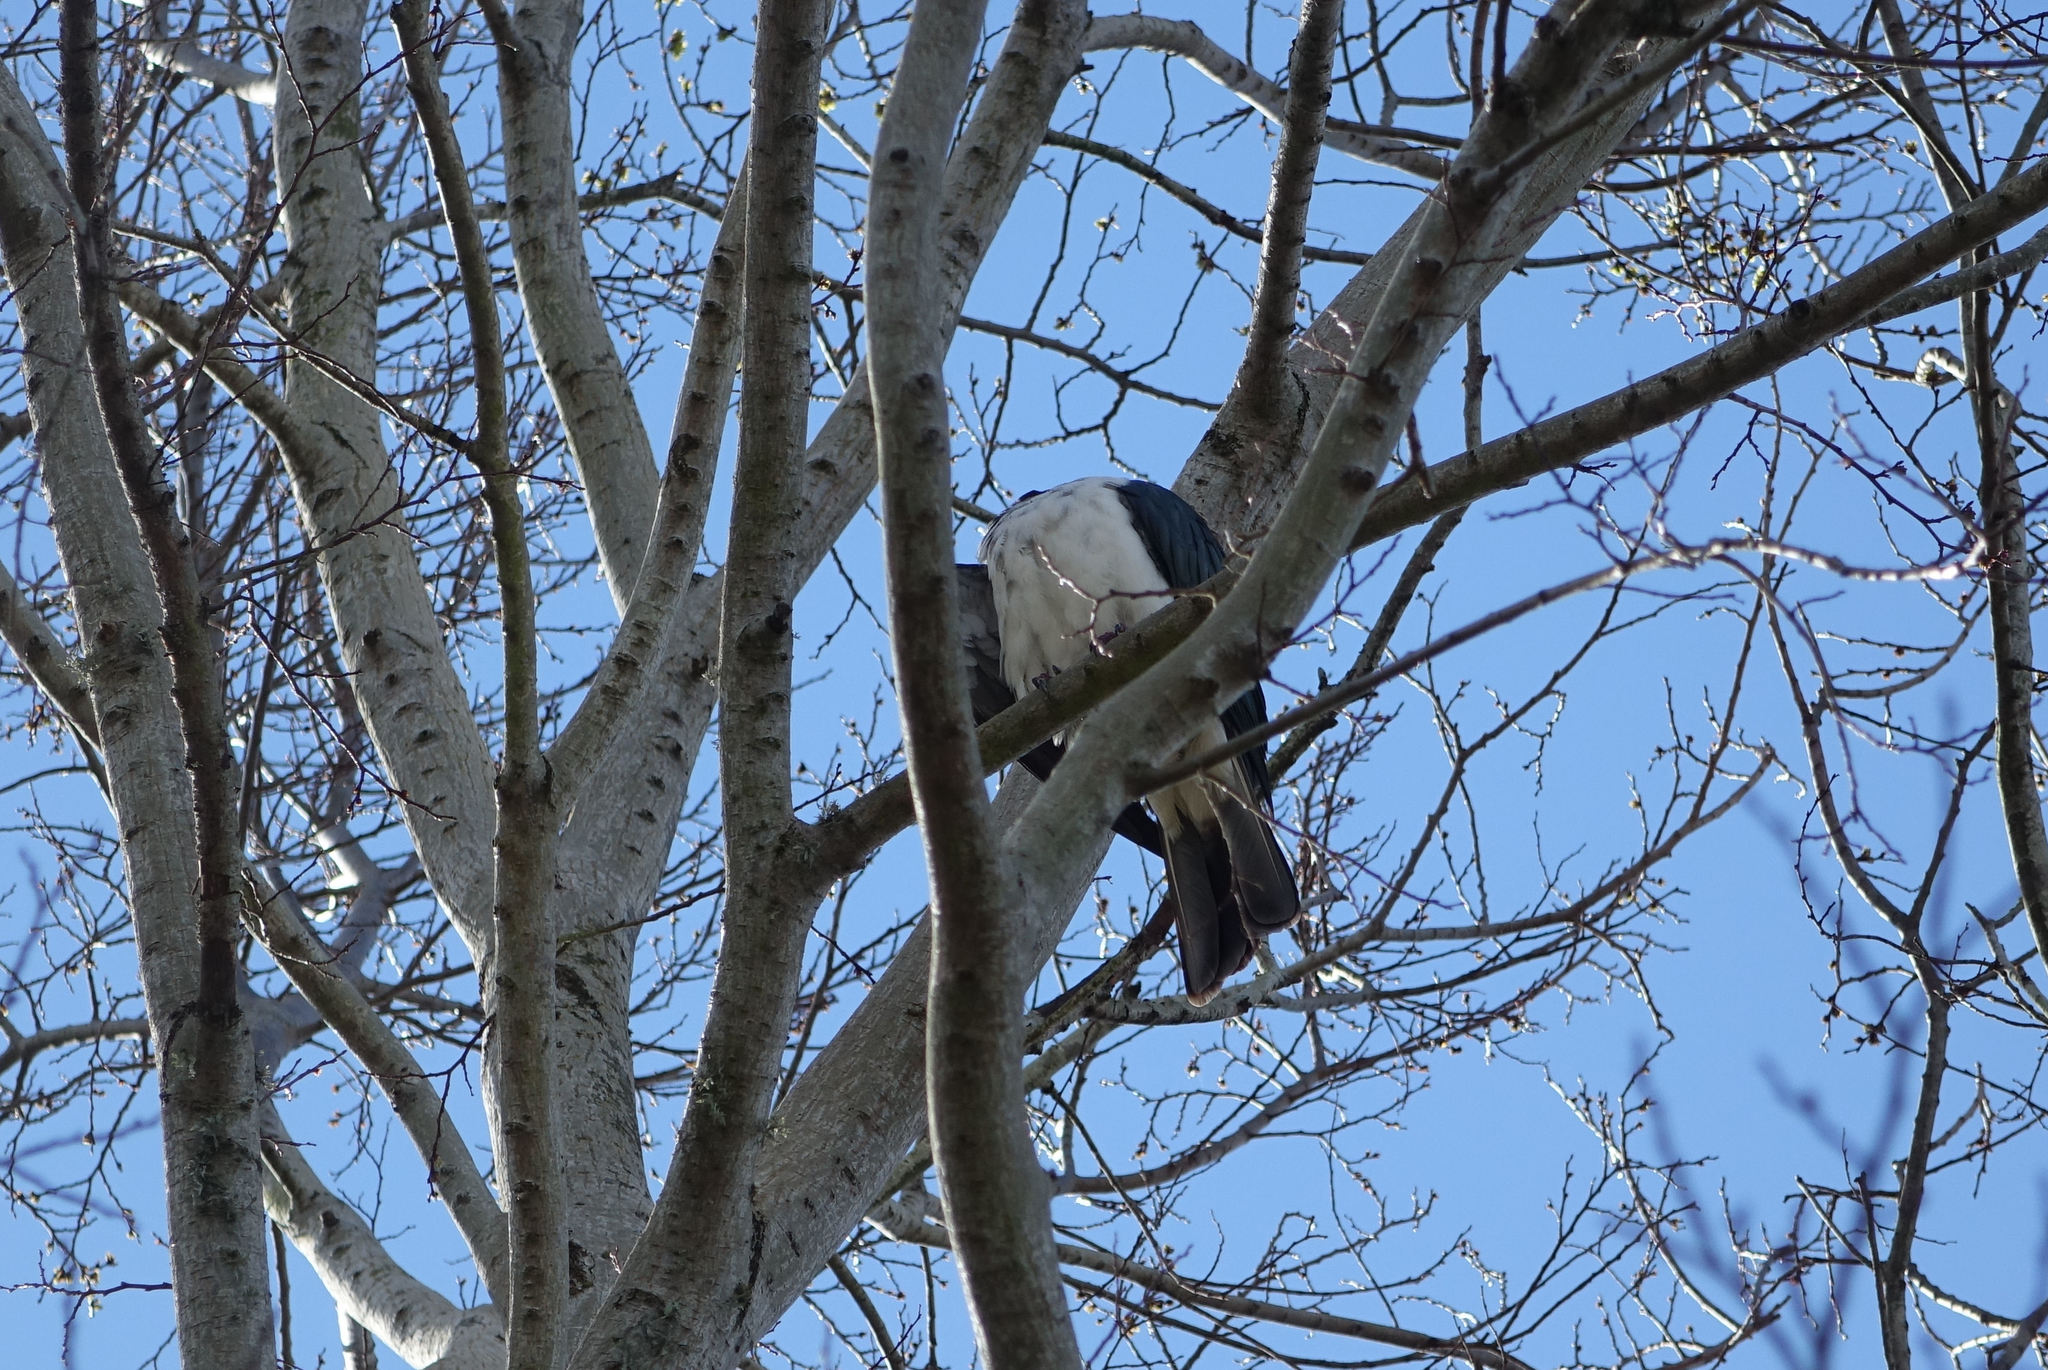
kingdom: Animalia
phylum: Chordata
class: Aves
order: Columbiformes
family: Columbidae
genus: Hemiphaga
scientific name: Hemiphaga novaeseelandiae
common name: New zealand pigeon
